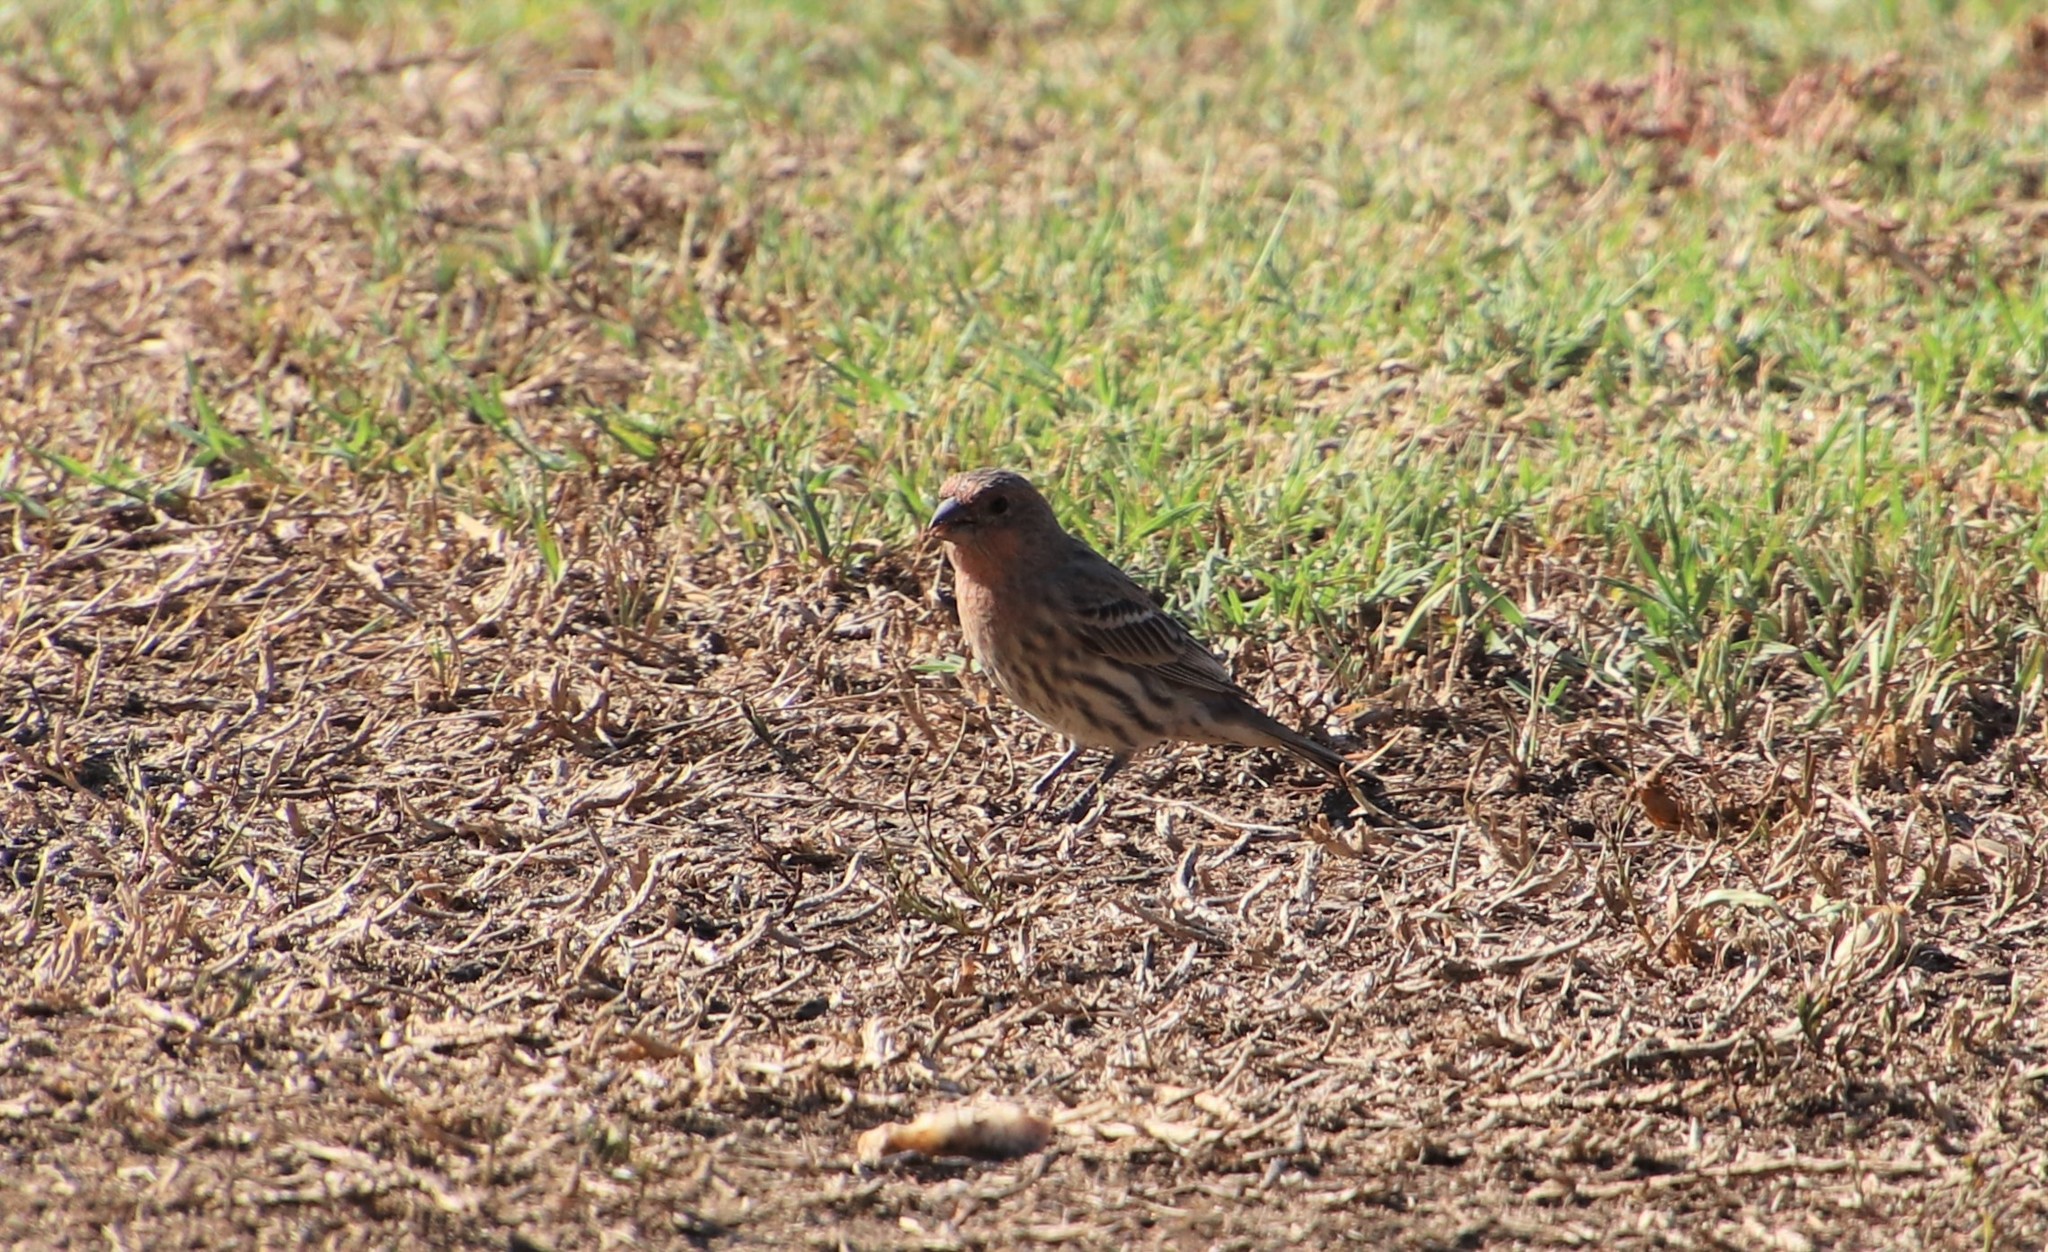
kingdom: Animalia
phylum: Chordata
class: Aves
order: Passeriformes
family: Fringillidae
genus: Haemorhous
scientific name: Haemorhous mexicanus
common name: House finch
